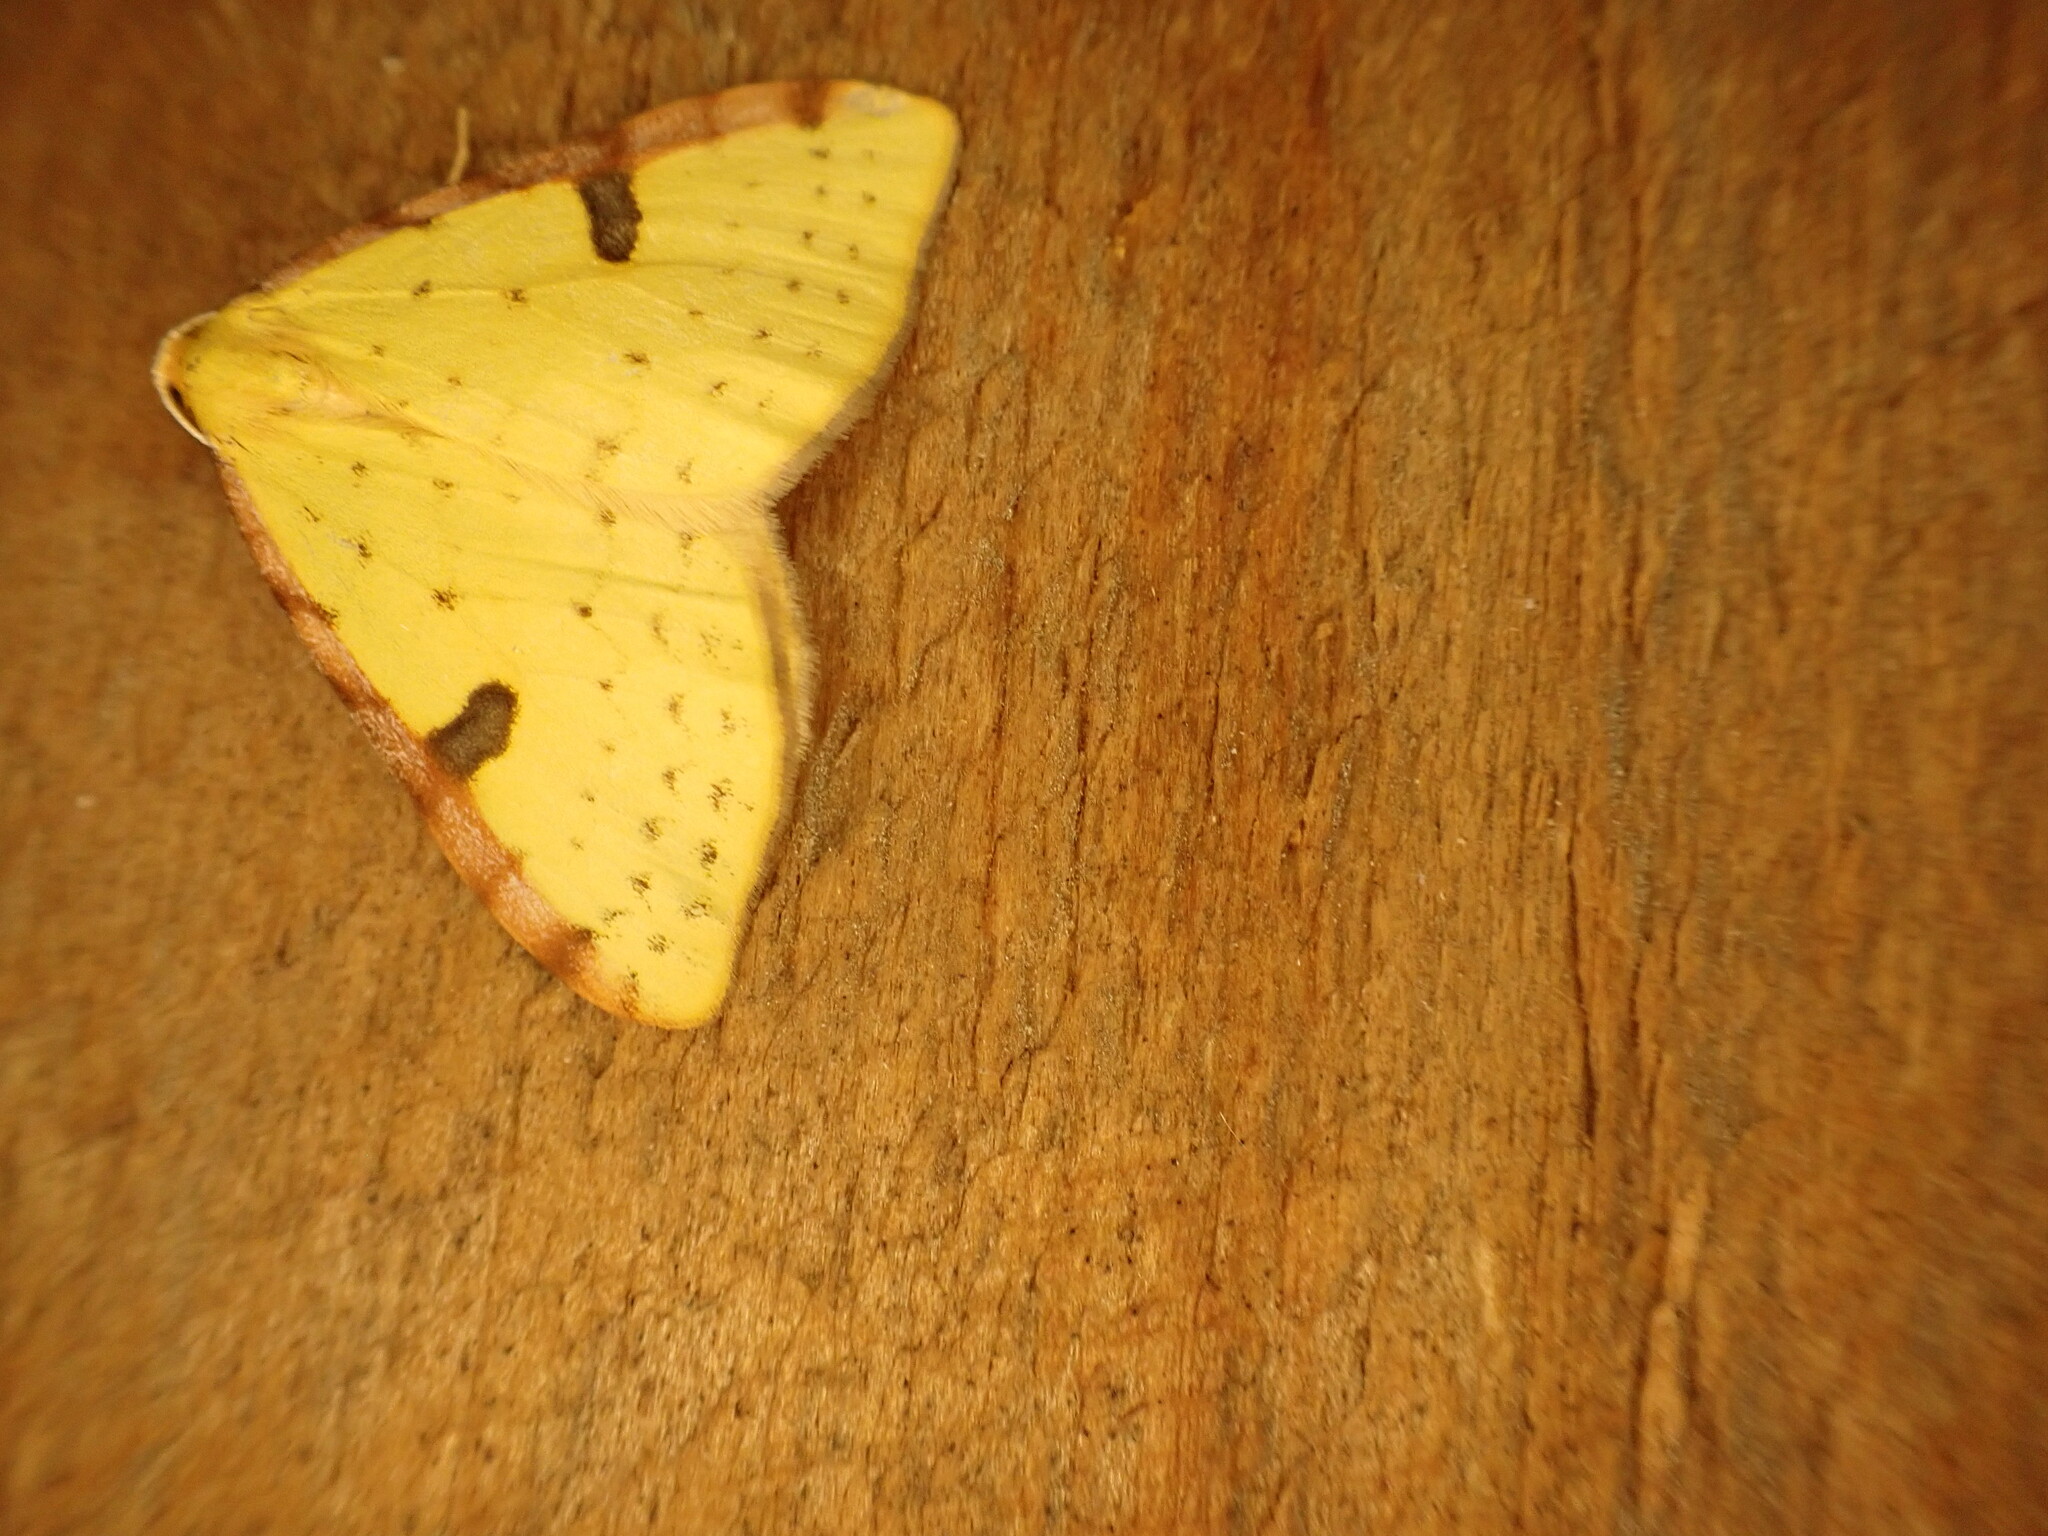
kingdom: Animalia
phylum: Arthropoda
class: Insecta
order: Lepidoptera
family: Geometridae
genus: Epiphryne
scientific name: Epiphryne xanthaspis
